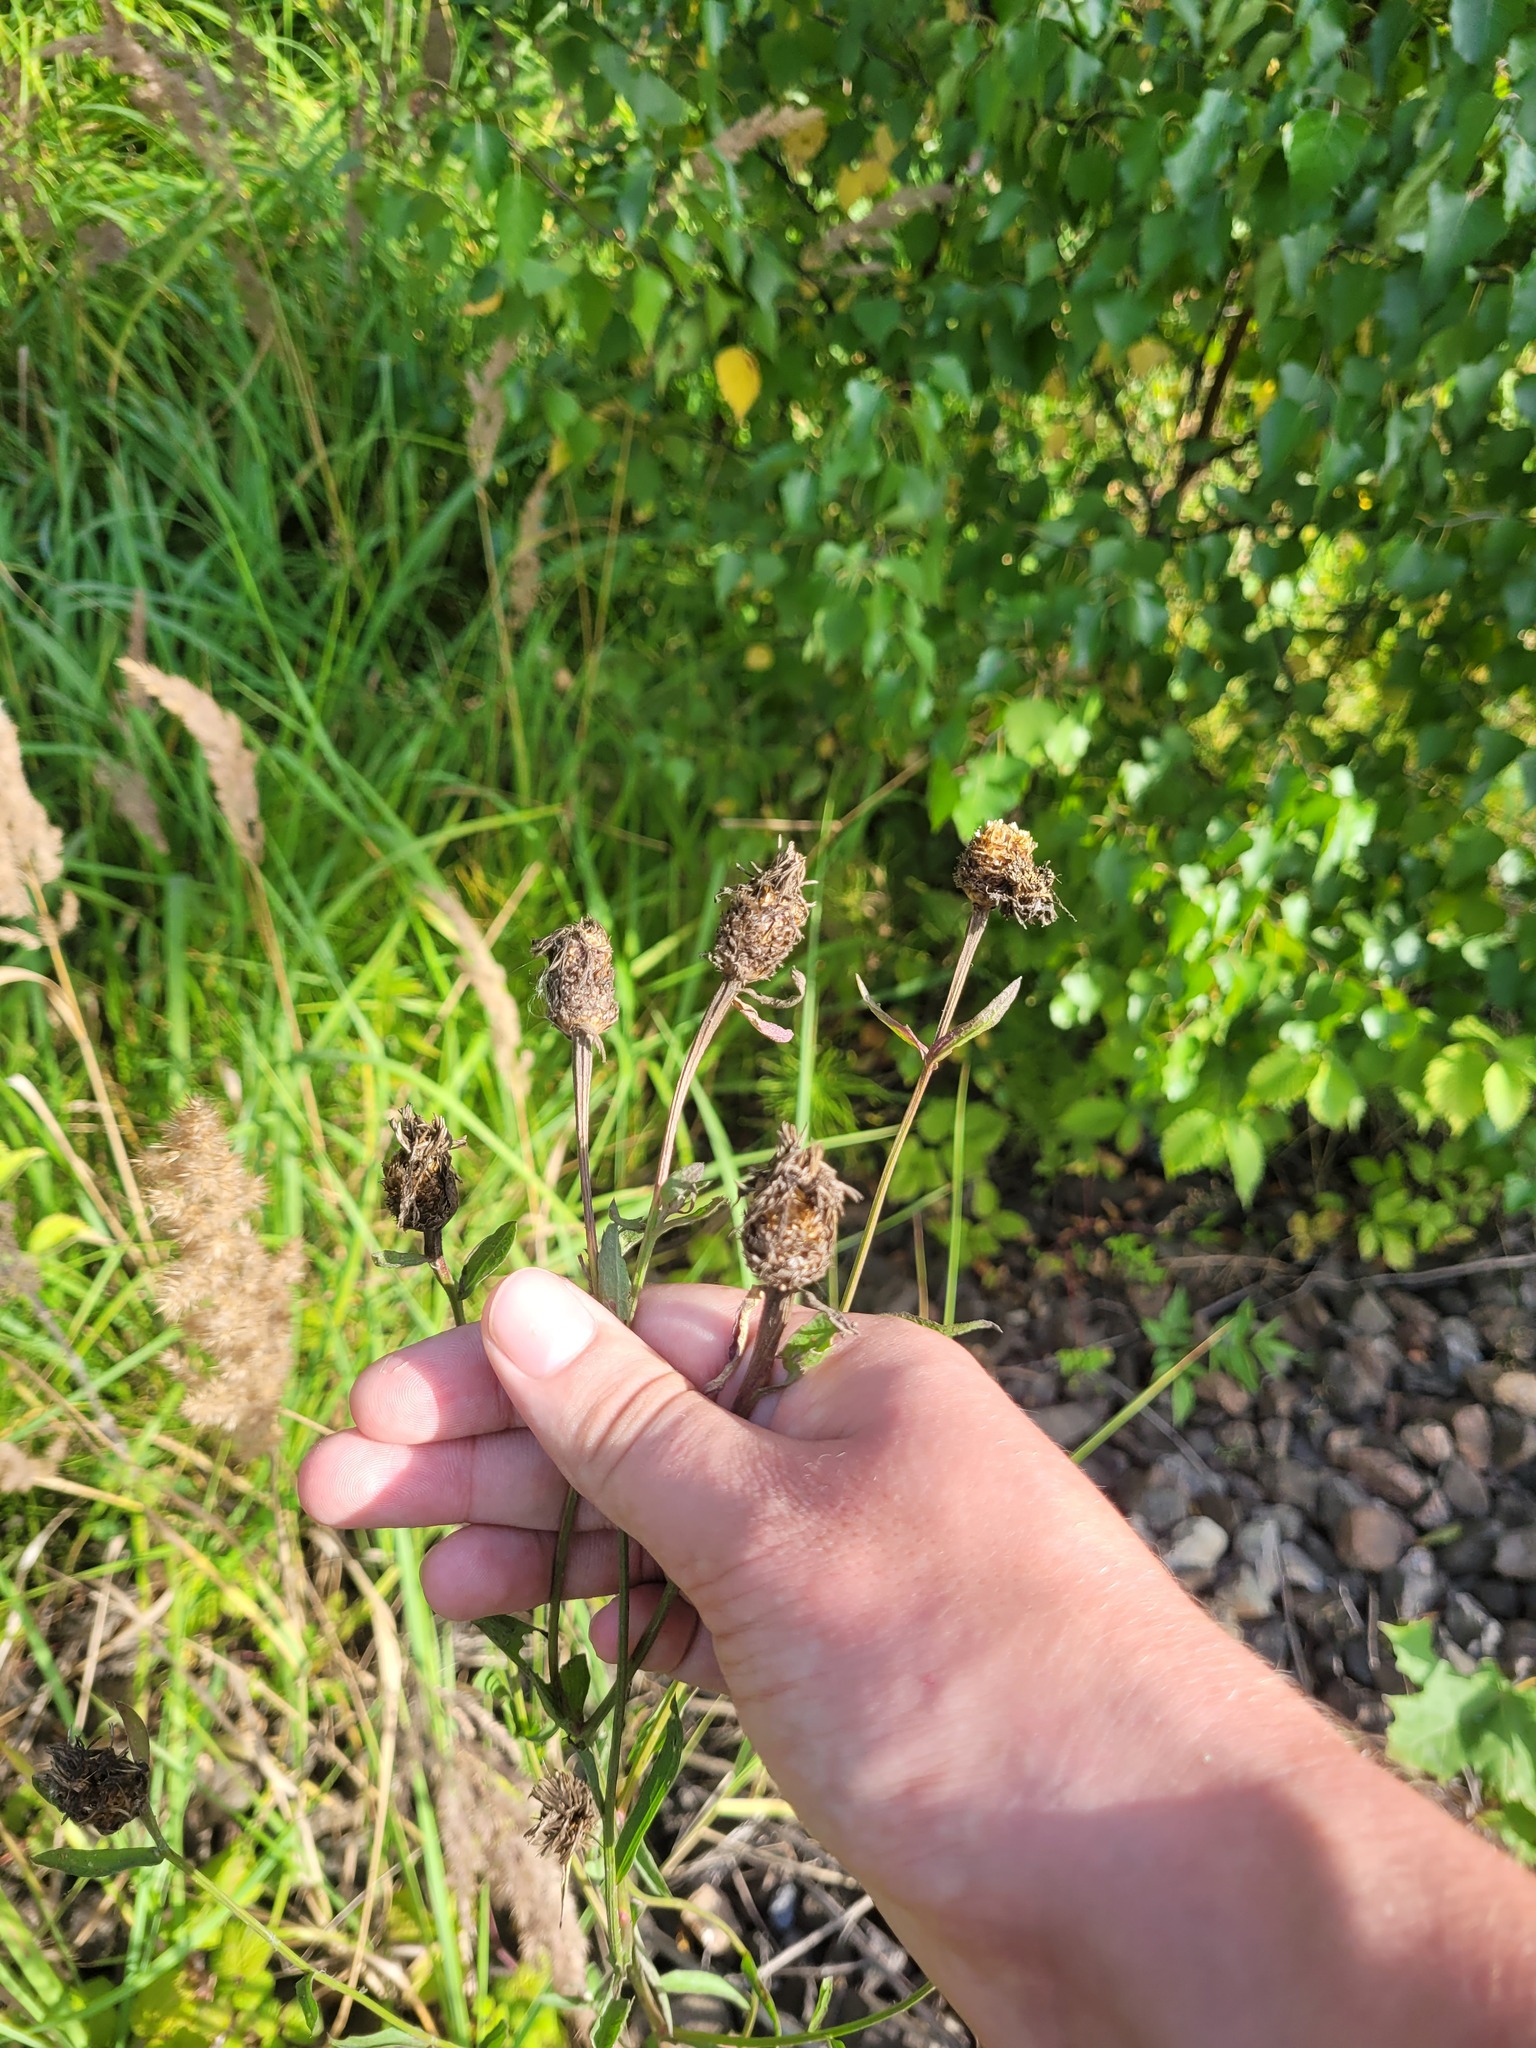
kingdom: Plantae
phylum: Tracheophyta
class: Magnoliopsida
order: Asterales
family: Asteraceae
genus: Centaurea
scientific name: Centaurea jacea
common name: Brown knapweed
